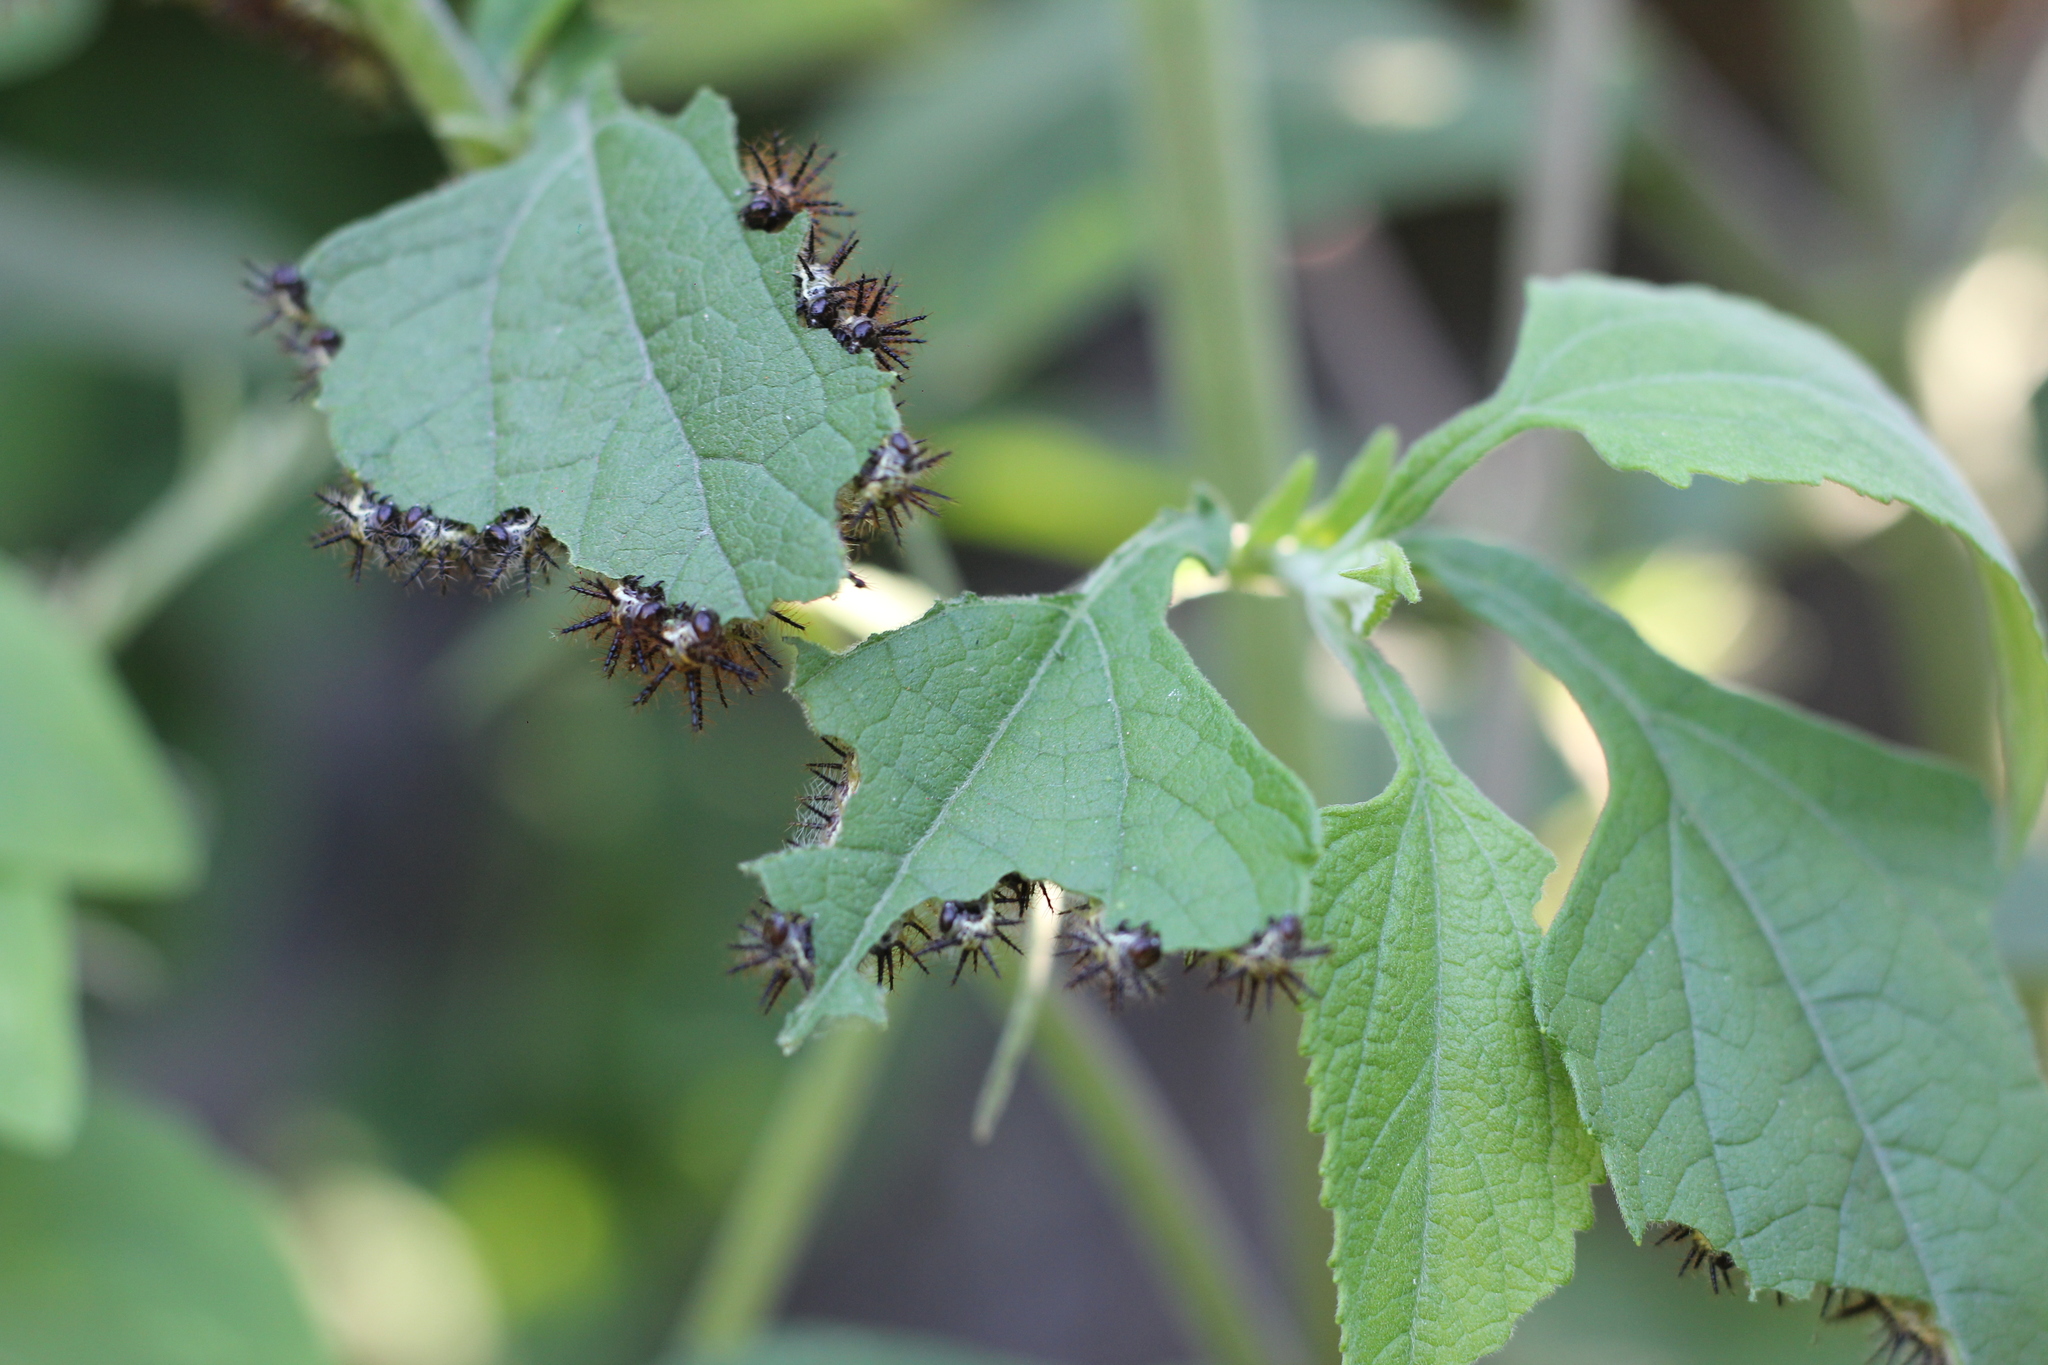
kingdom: Animalia
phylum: Arthropoda
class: Insecta
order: Lepidoptera
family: Nymphalidae
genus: Actinote
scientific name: Actinote
